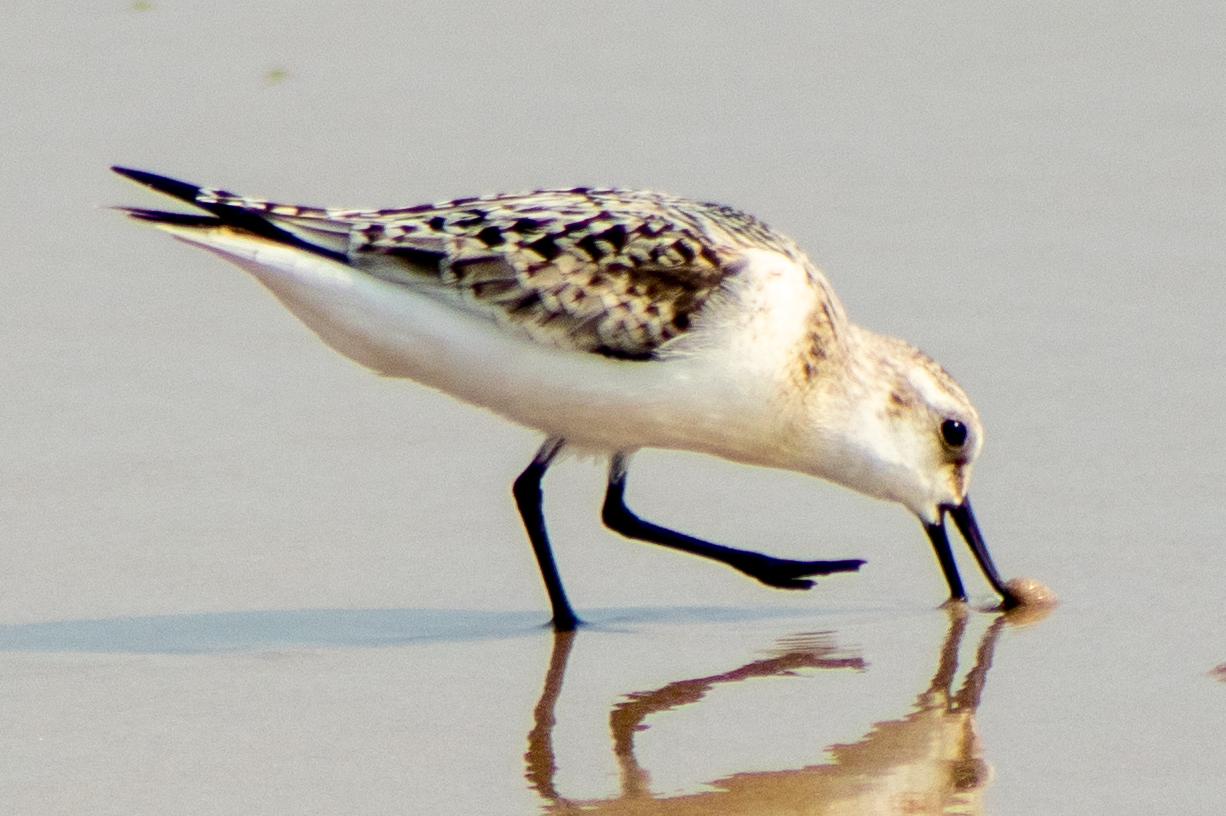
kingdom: Animalia
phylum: Chordata
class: Aves
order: Charadriiformes
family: Scolopacidae
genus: Calidris
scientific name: Calidris alba
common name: Sanderling
